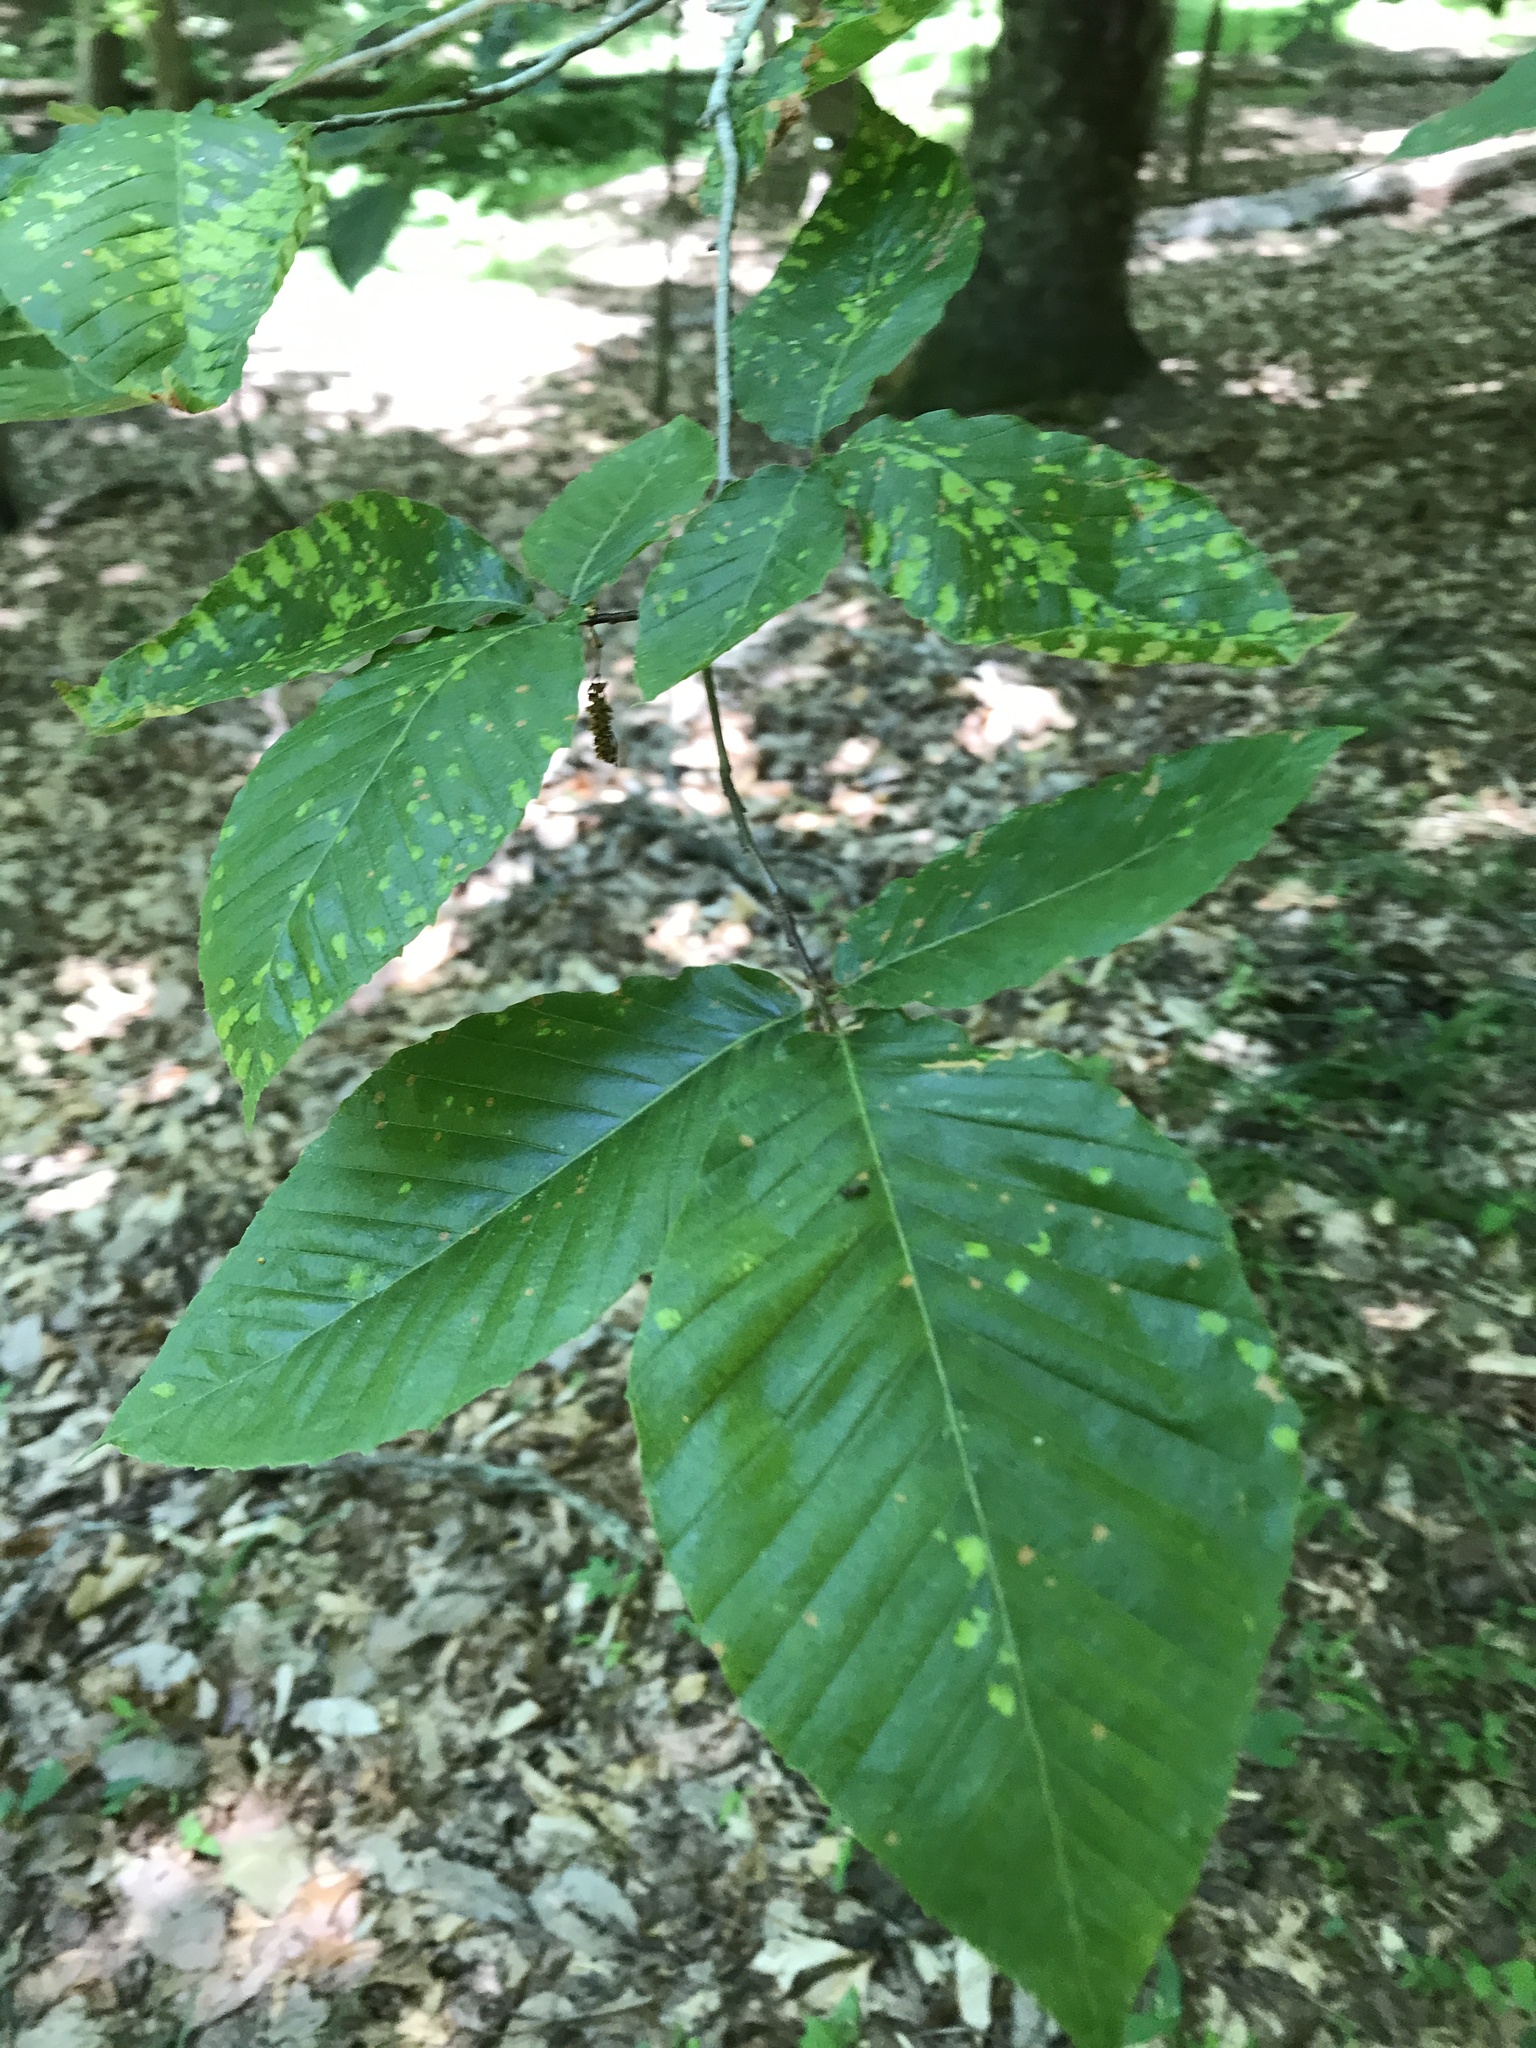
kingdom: Plantae
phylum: Tracheophyta
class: Magnoliopsida
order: Fagales
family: Fagaceae
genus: Fagus
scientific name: Fagus grandifolia
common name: American beech
